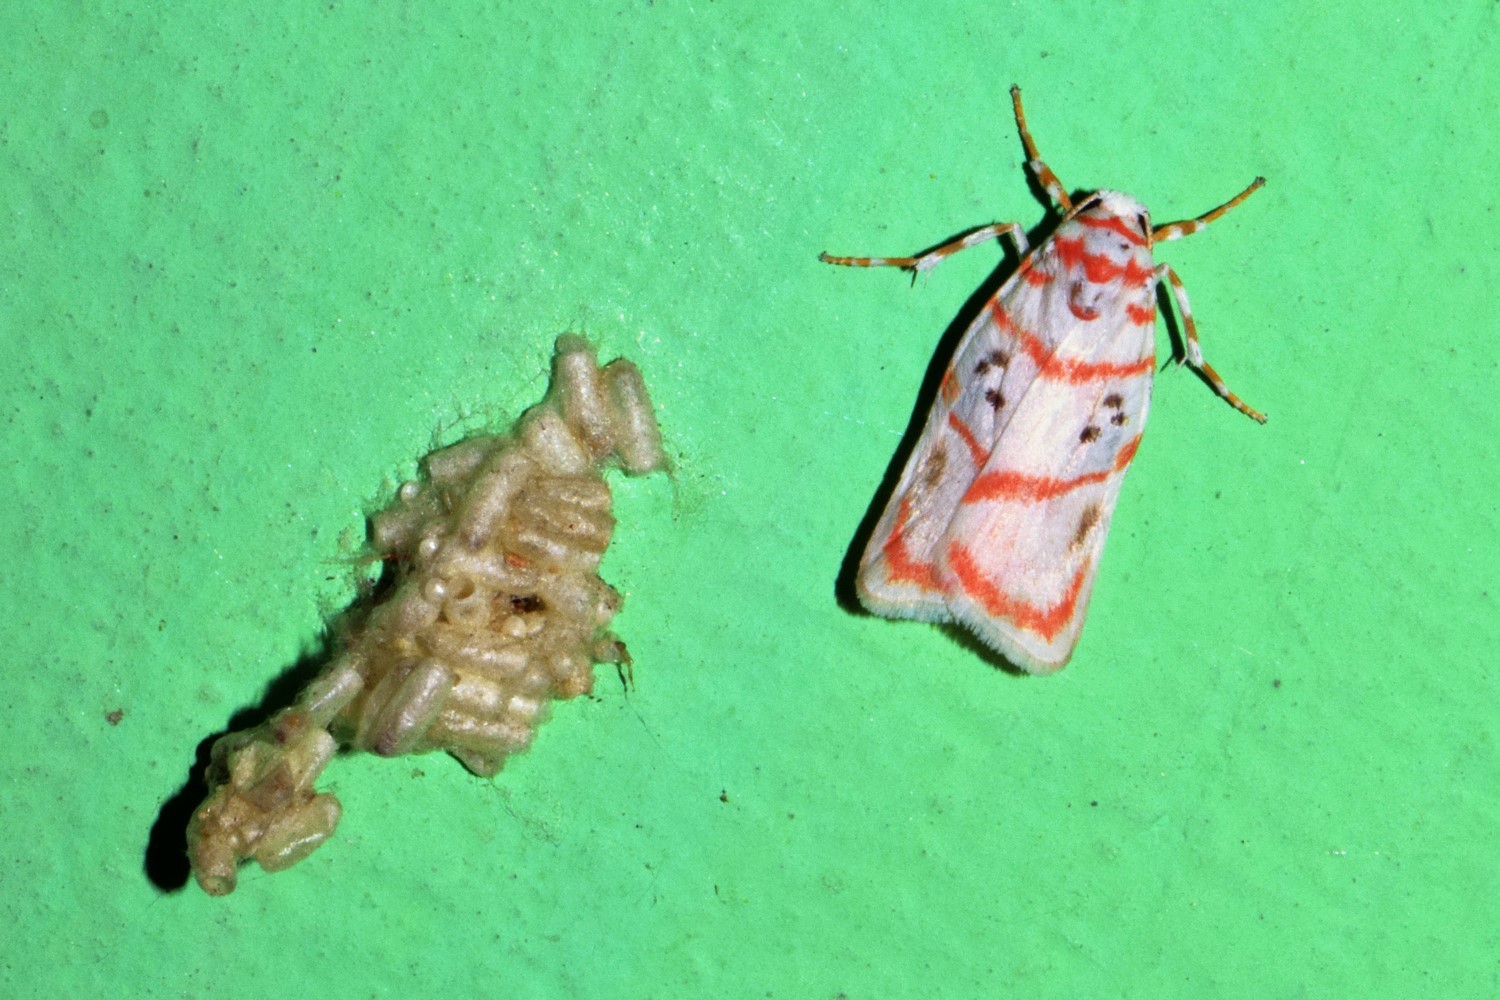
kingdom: Animalia
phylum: Arthropoda
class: Insecta
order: Lepidoptera
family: Erebidae
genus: Cyana
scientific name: Cyana obliquilineata
